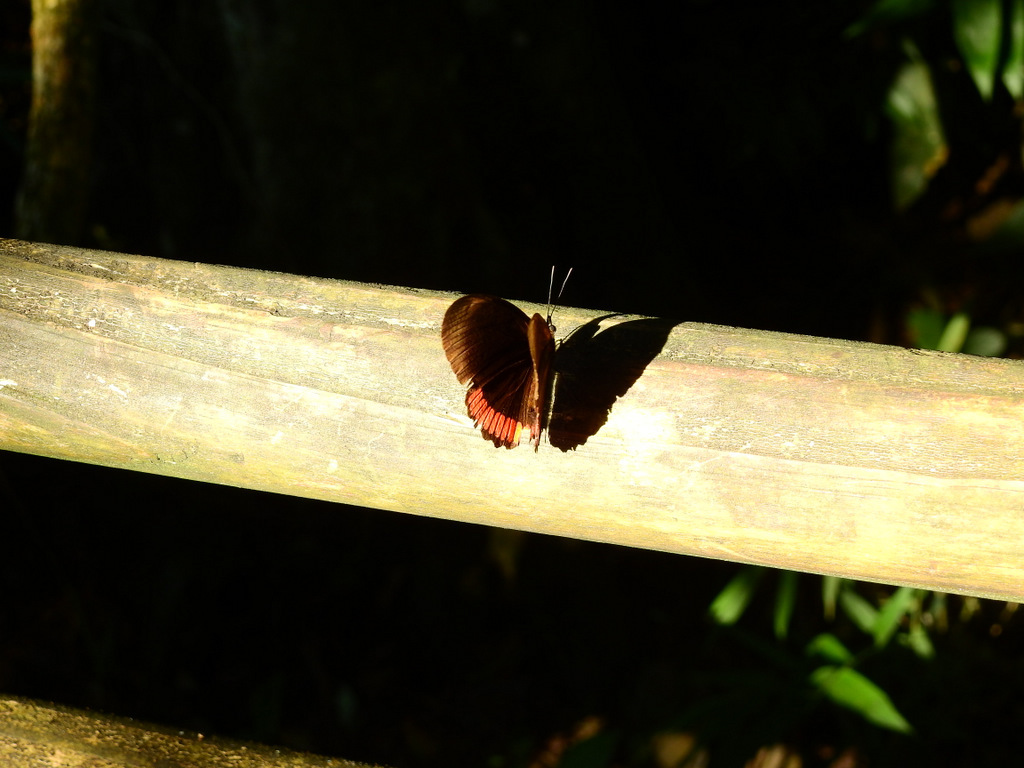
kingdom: Animalia
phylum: Arthropoda
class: Insecta
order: Lepidoptera
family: Sesiidae
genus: Sesia
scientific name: Sesia Biblis hyperia
